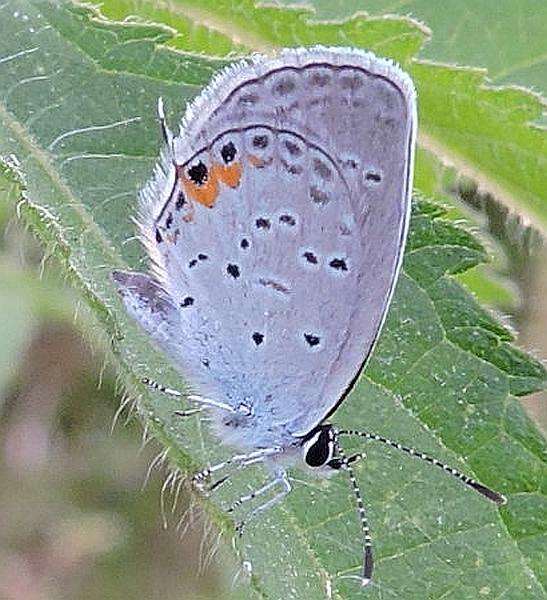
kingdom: Animalia
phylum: Arthropoda
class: Insecta
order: Lepidoptera
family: Lycaenidae
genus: Elkalyce
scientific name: Elkalyce comyntas
